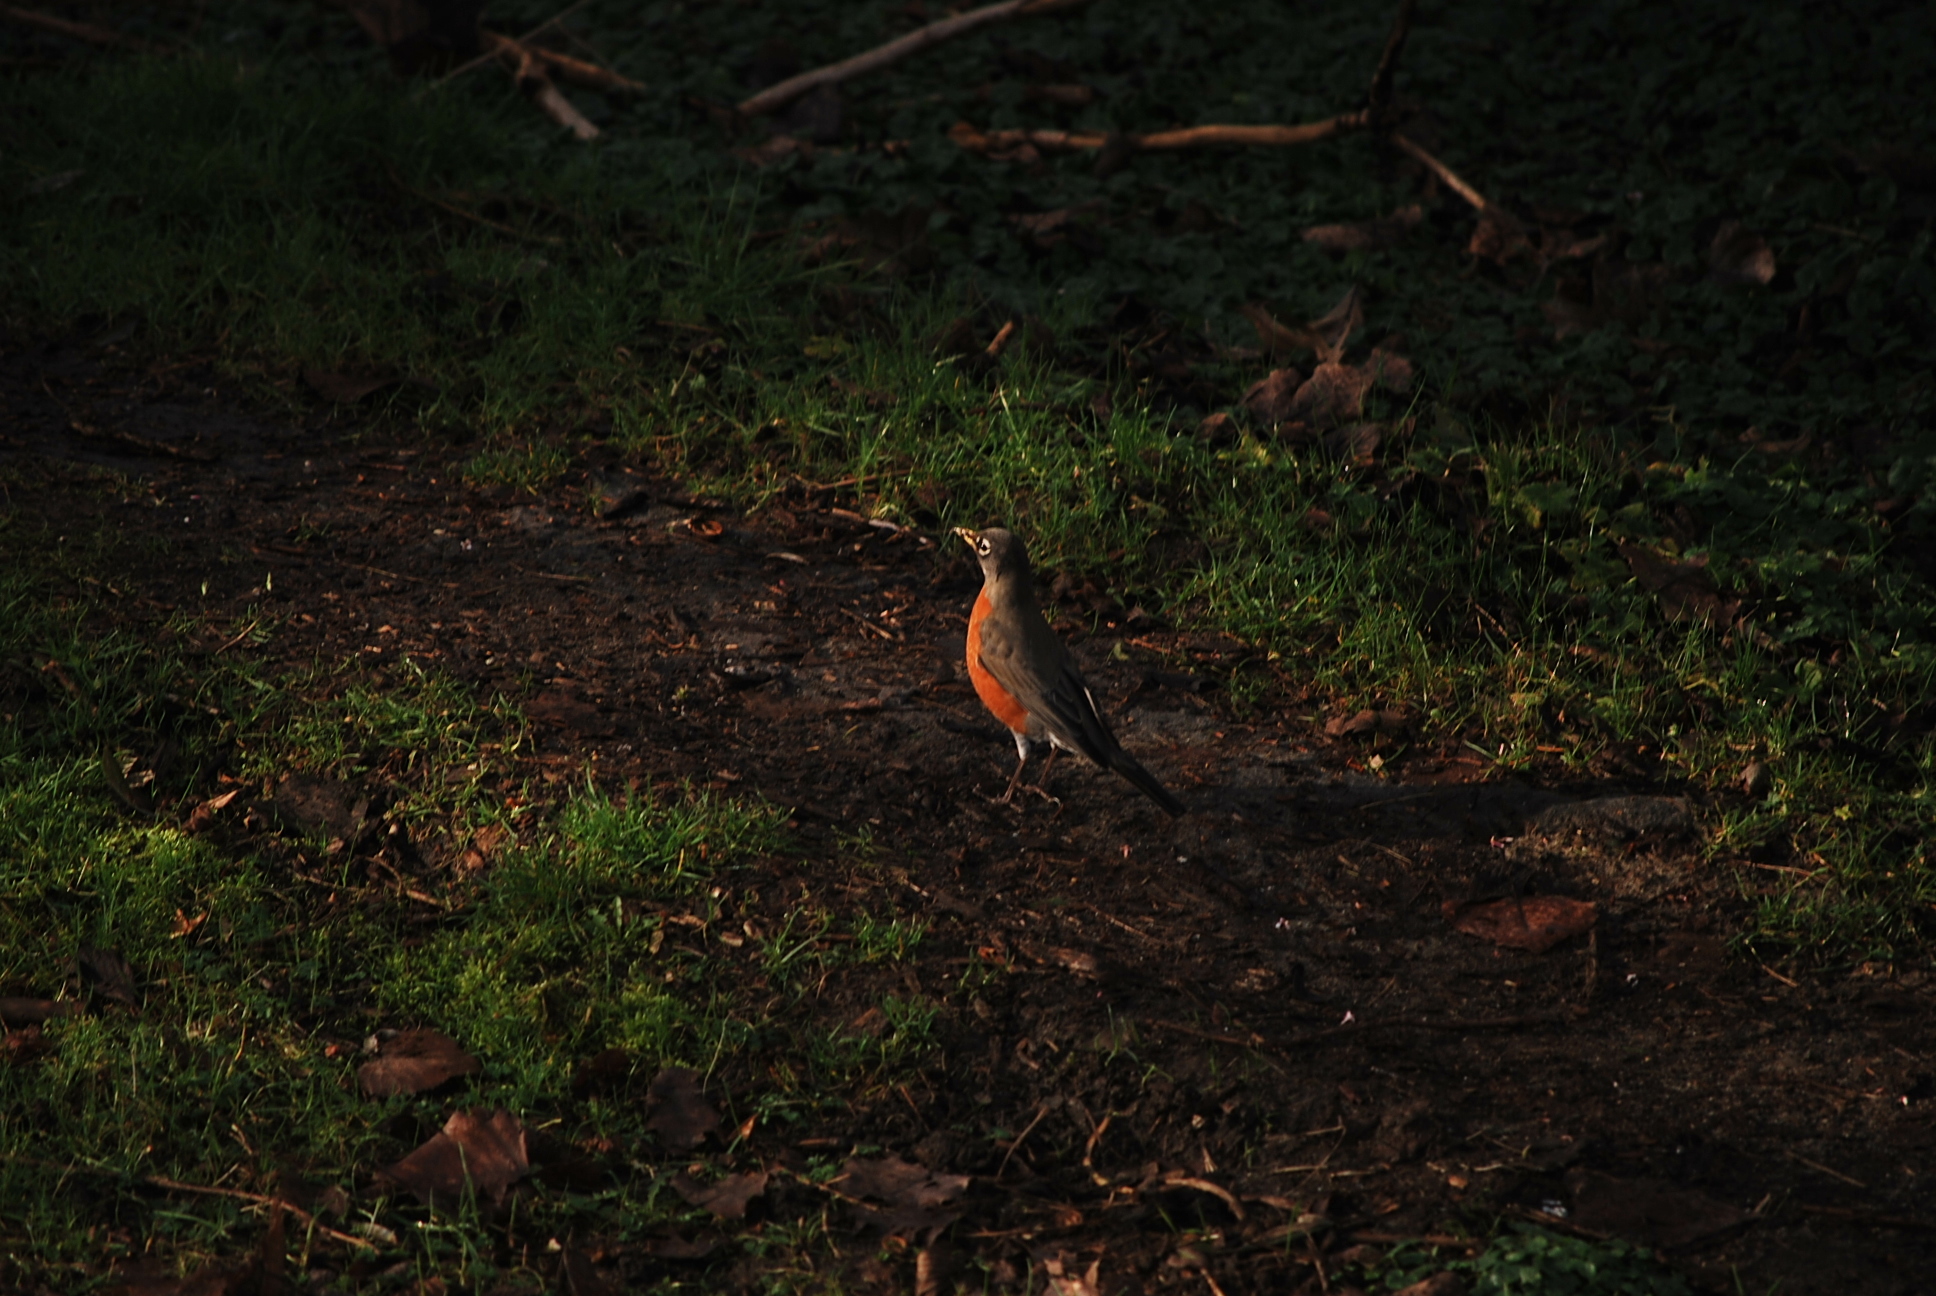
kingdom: Animalia
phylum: Chordata
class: Aves
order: Passeriformes
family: Turdidae
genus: Turdus
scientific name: Turdus migratorius
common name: American robin
